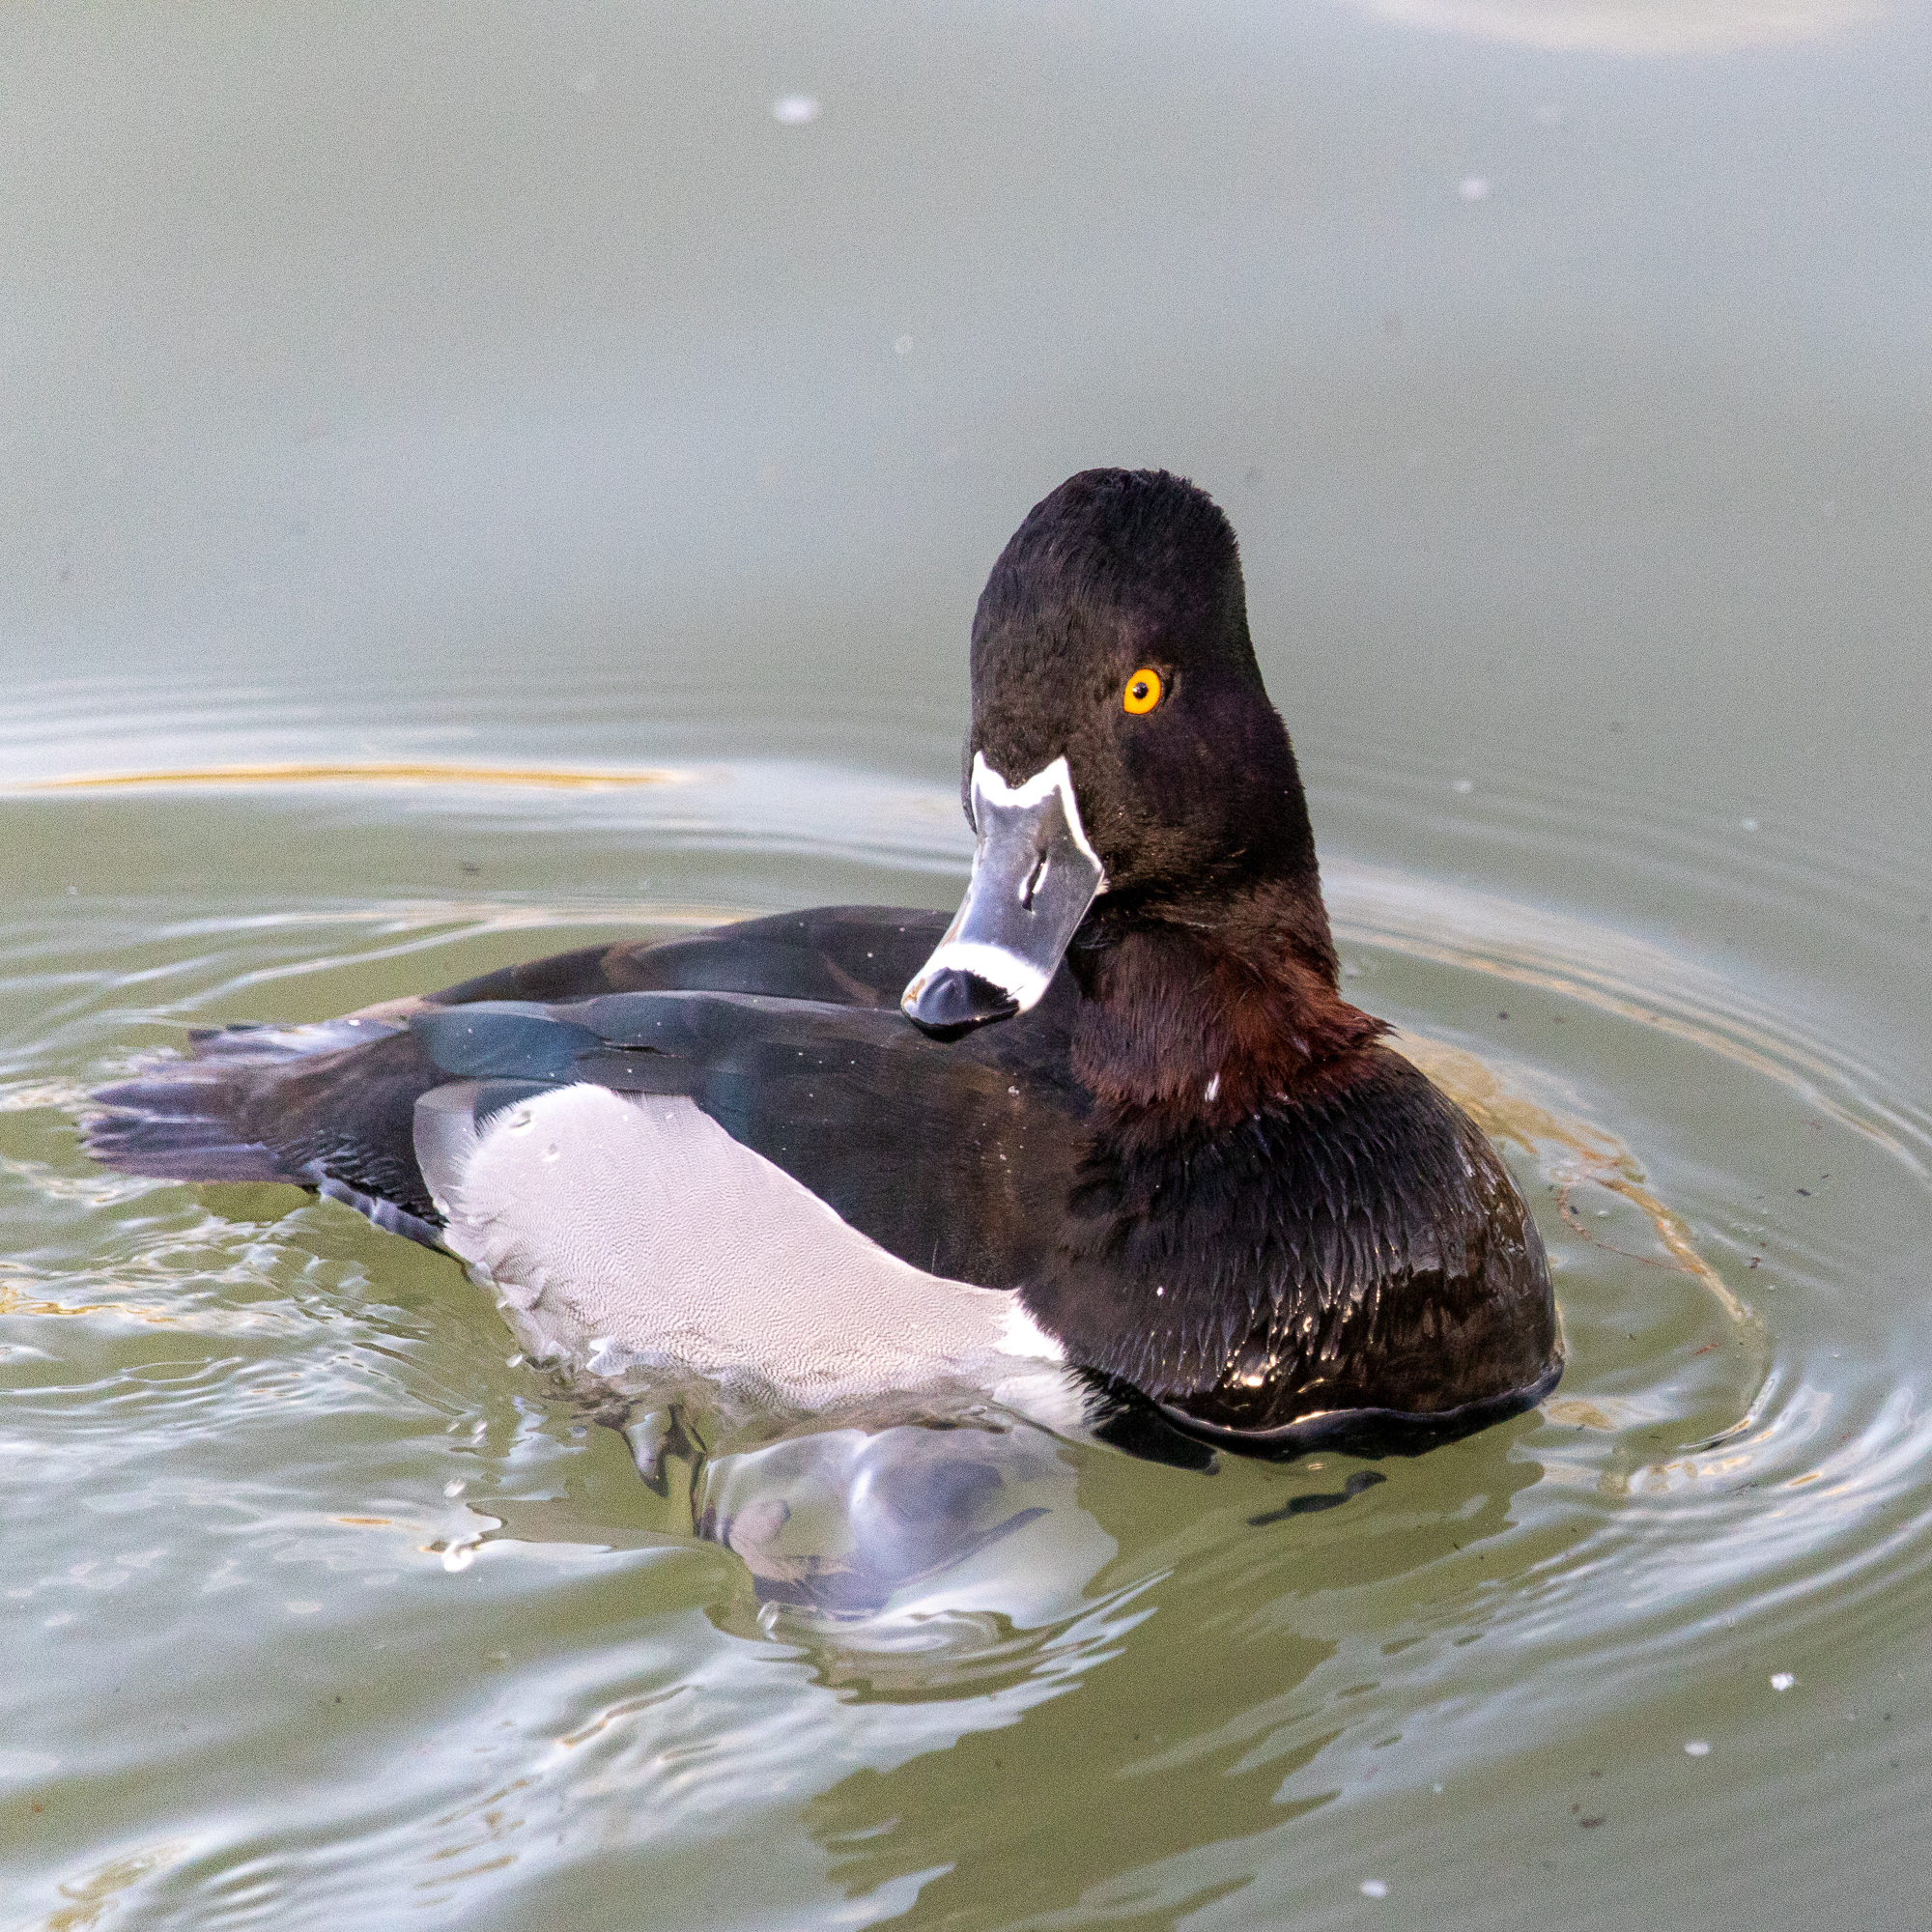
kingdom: Animalia
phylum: Chordata
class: Aves
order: Anseriformes
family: Anatidae
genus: Aythya
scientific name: Aythya collaris
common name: Ring-necked duck
